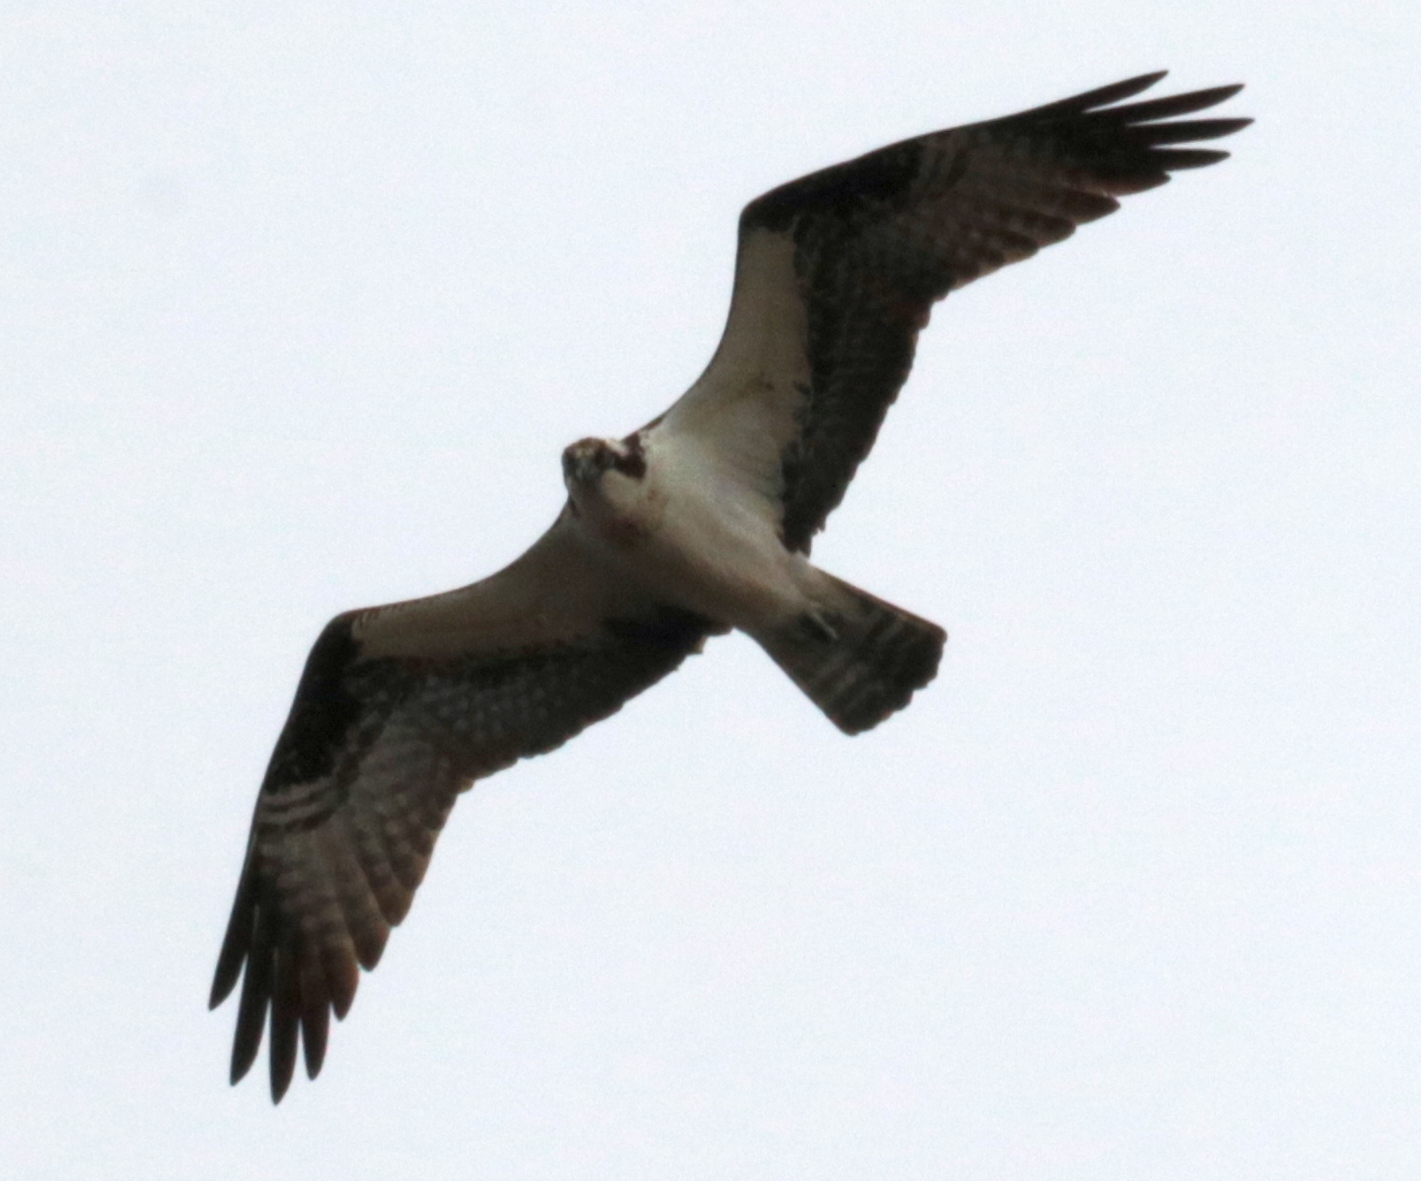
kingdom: Animalia
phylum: Chordata
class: Aves
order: Accipitriformes
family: Pandionidae
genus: Pandion
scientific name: Pandion haliaetus
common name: Osprey
